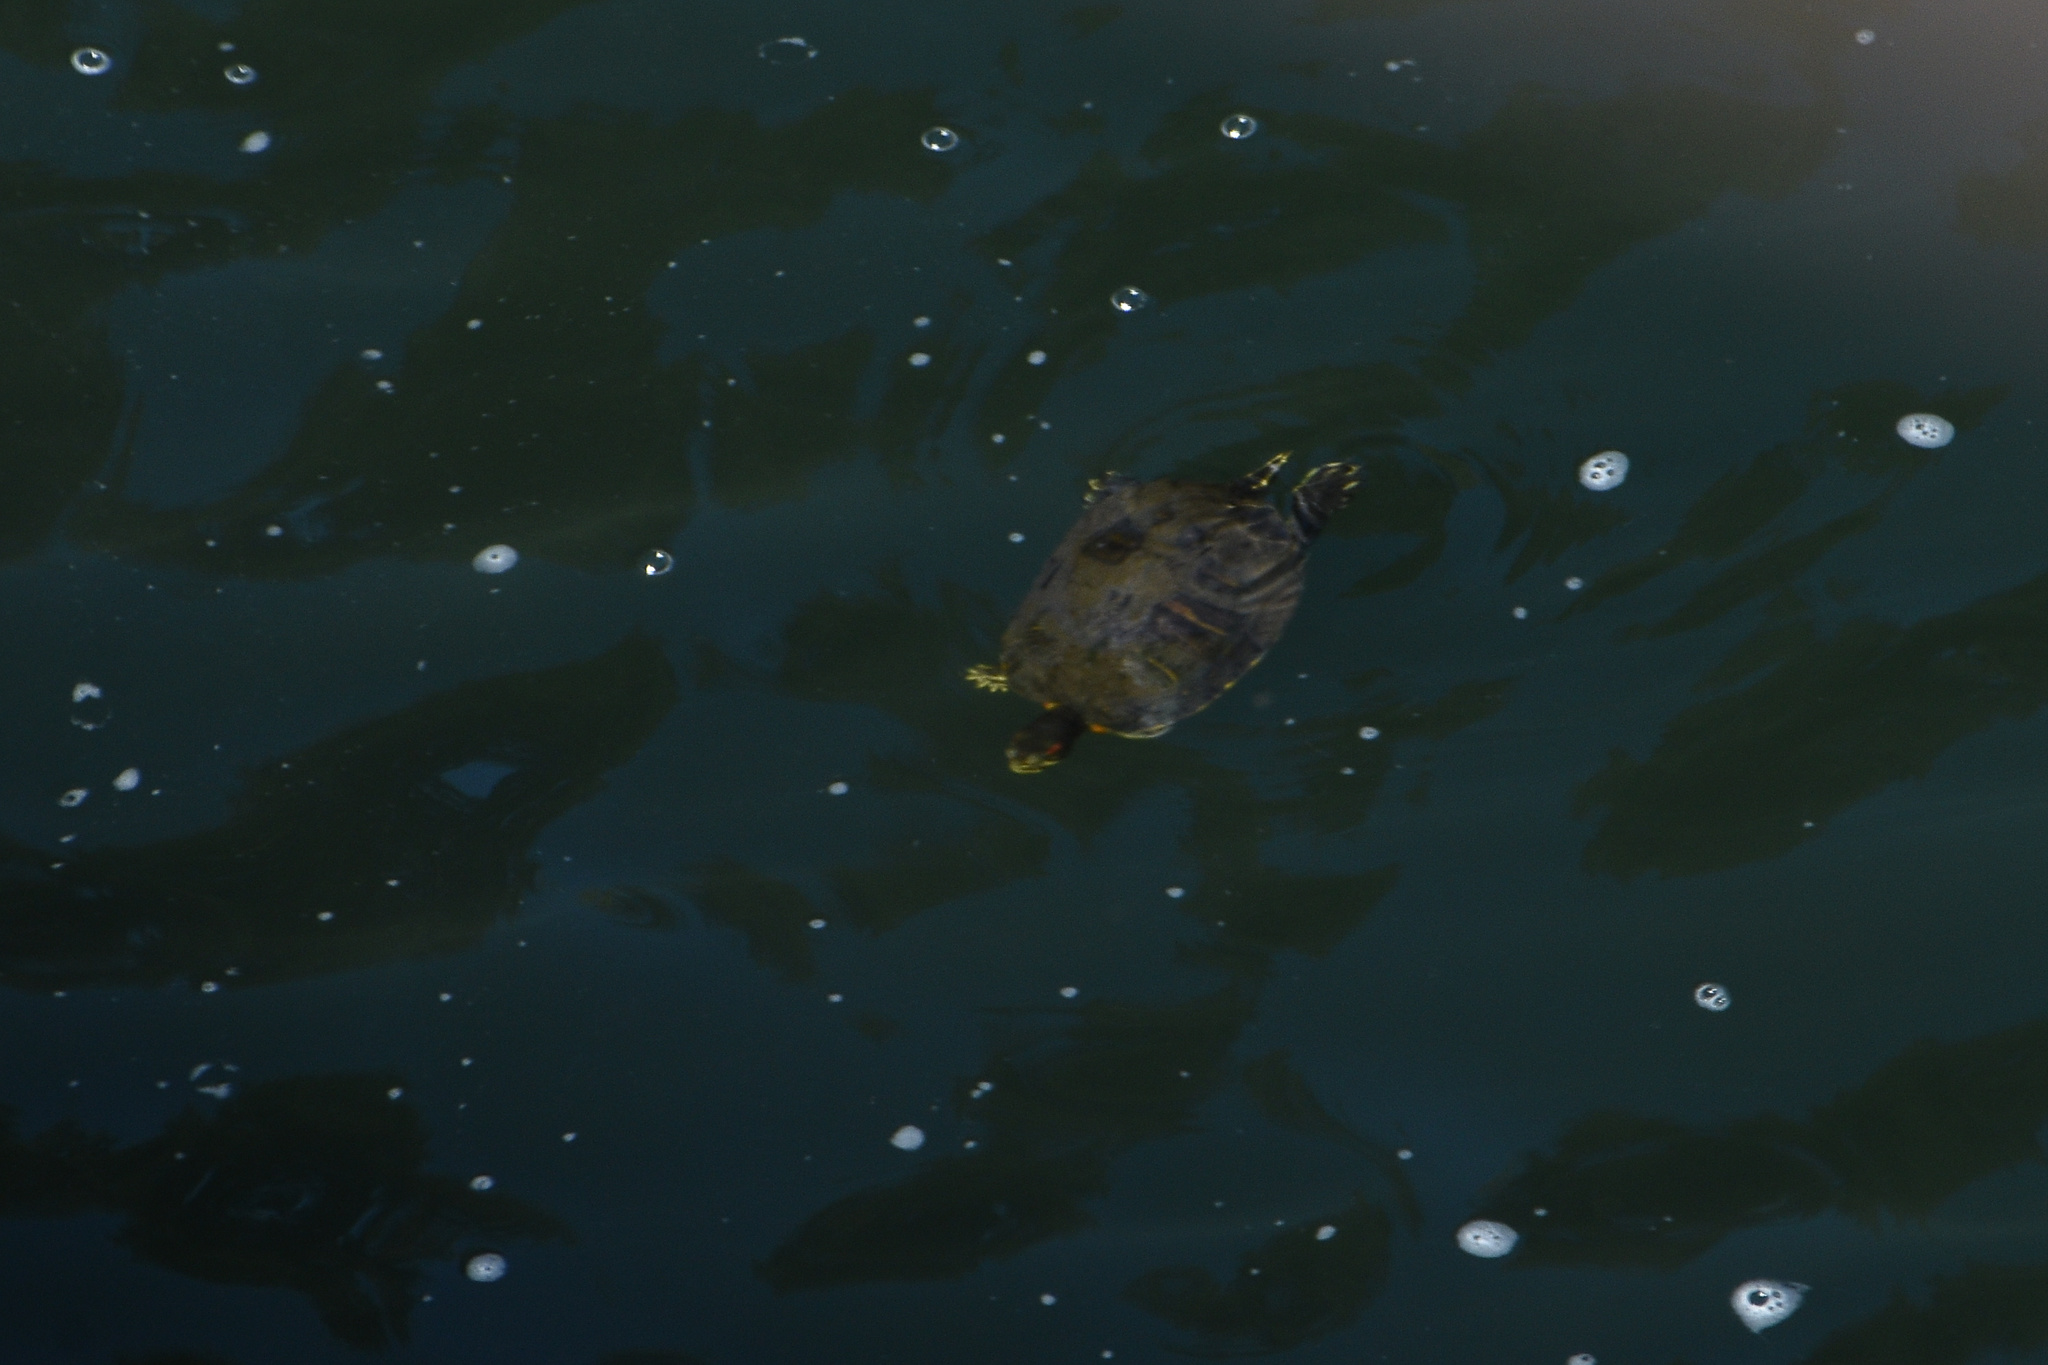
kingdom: Animalia
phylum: Chordata
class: Testudines
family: Emydidae
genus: Trachemys
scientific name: Trachemys scripta
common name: Slider
